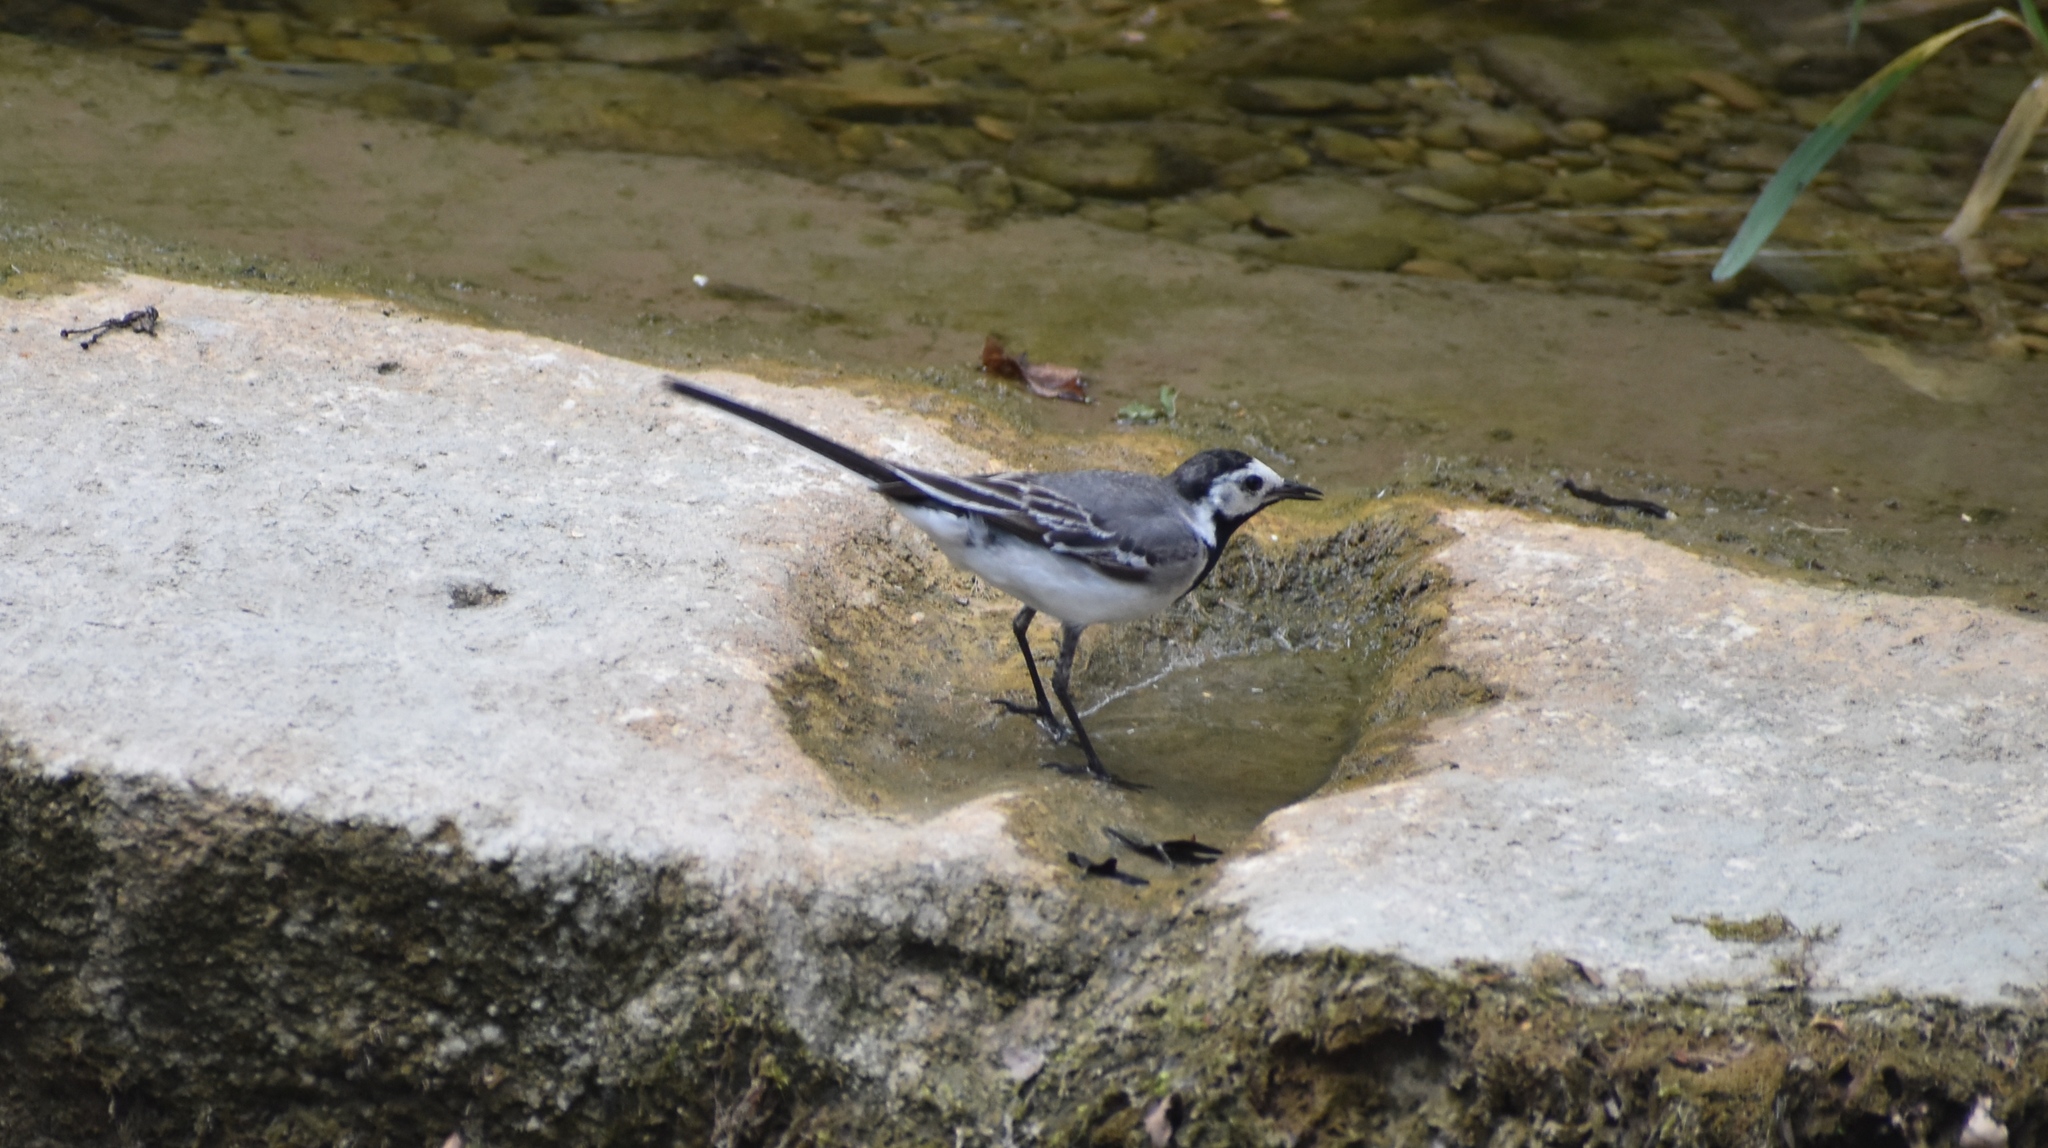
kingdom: Animalia
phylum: Chordata
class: Aves
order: Passeriformes
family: Motacillidae
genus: Motacilla
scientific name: Motacilla alba
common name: White wagtail
